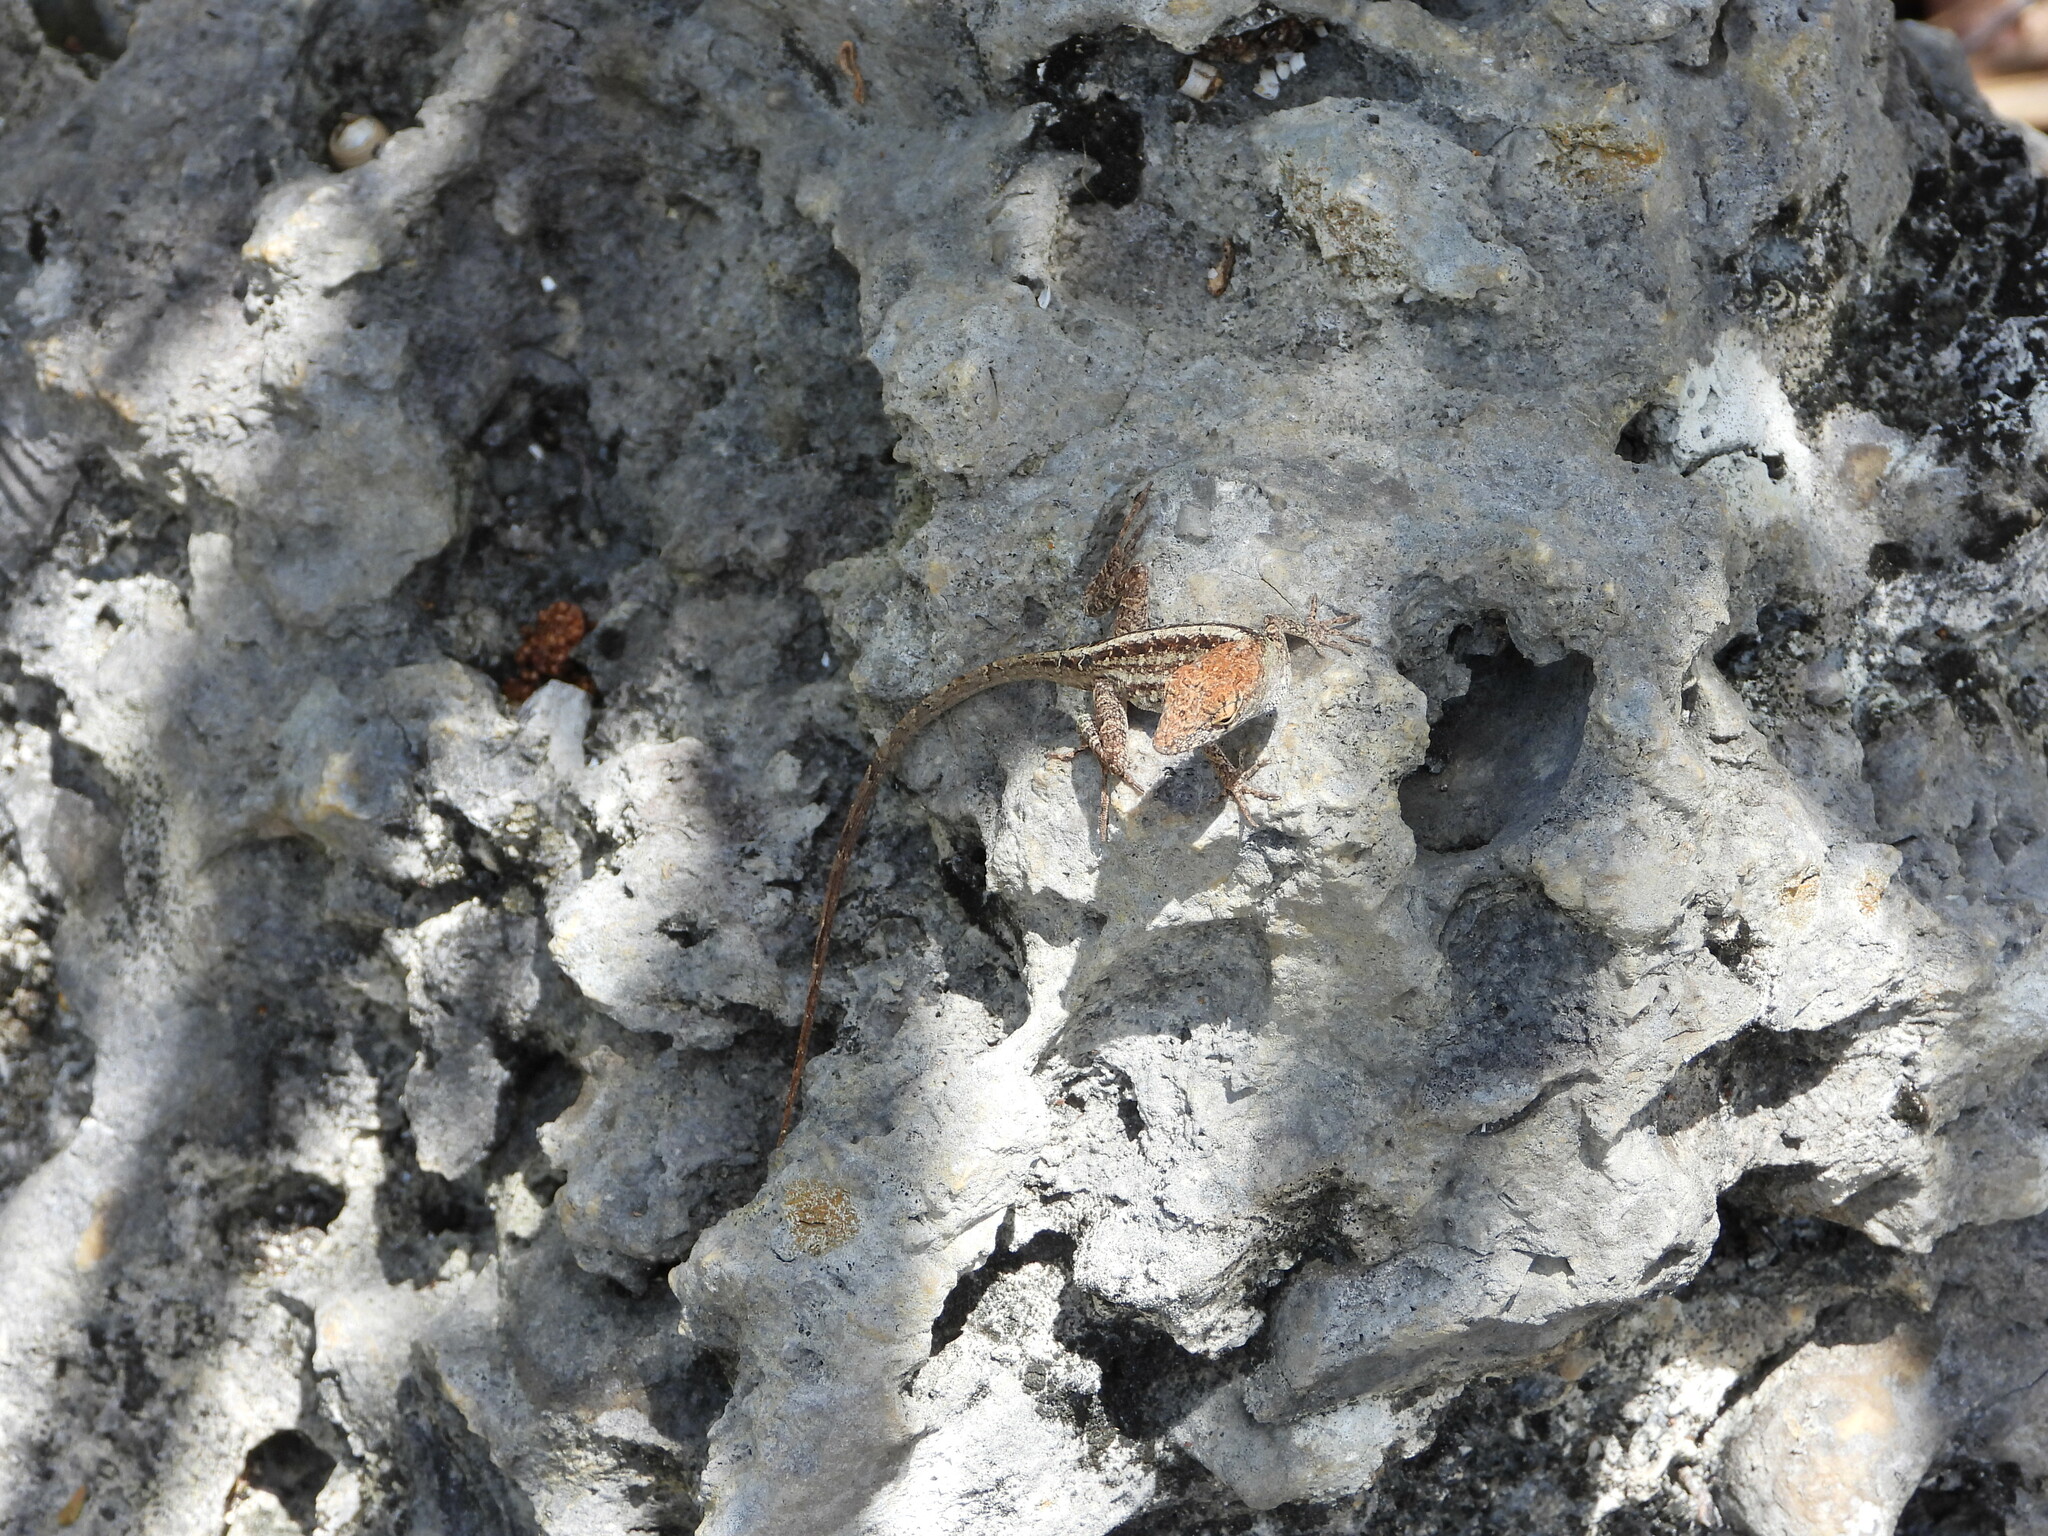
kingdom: Animalia
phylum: Chordata
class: Squamata
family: Dactyloidae
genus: Anolis
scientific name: Anolis sagrei
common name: Brown anole
